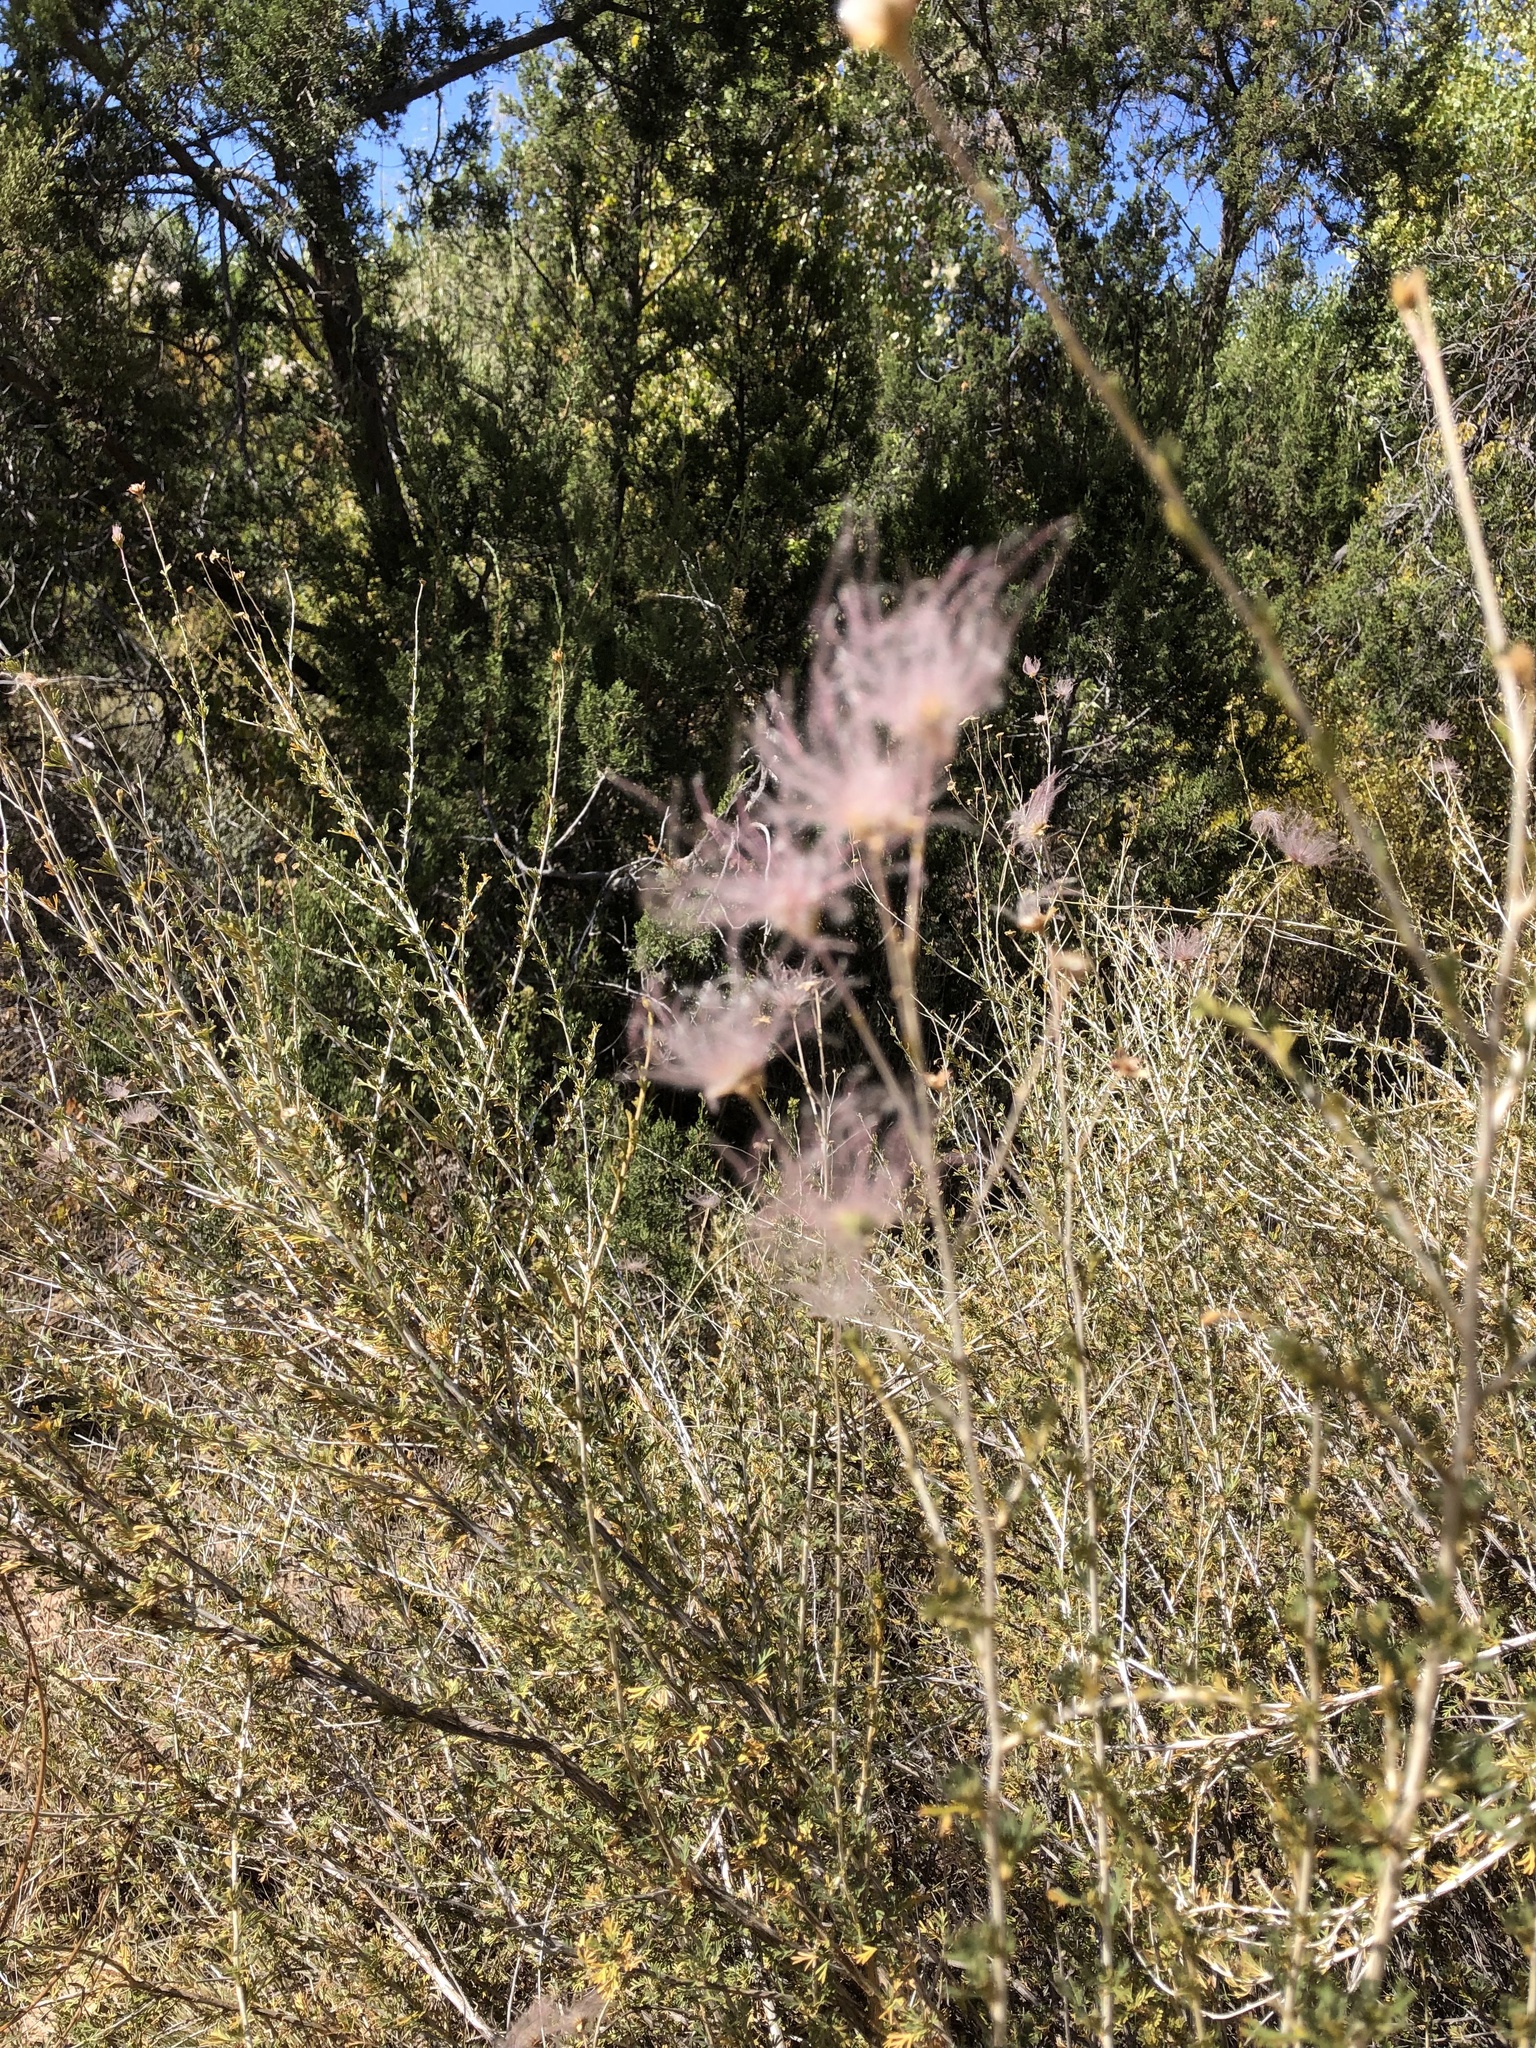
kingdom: Plantae
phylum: Tracheophyta
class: Magnoliopsida
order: Rosales
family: Rosaceae
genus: Fallugia
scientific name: Fallugia paradoxa
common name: Apache-plume
